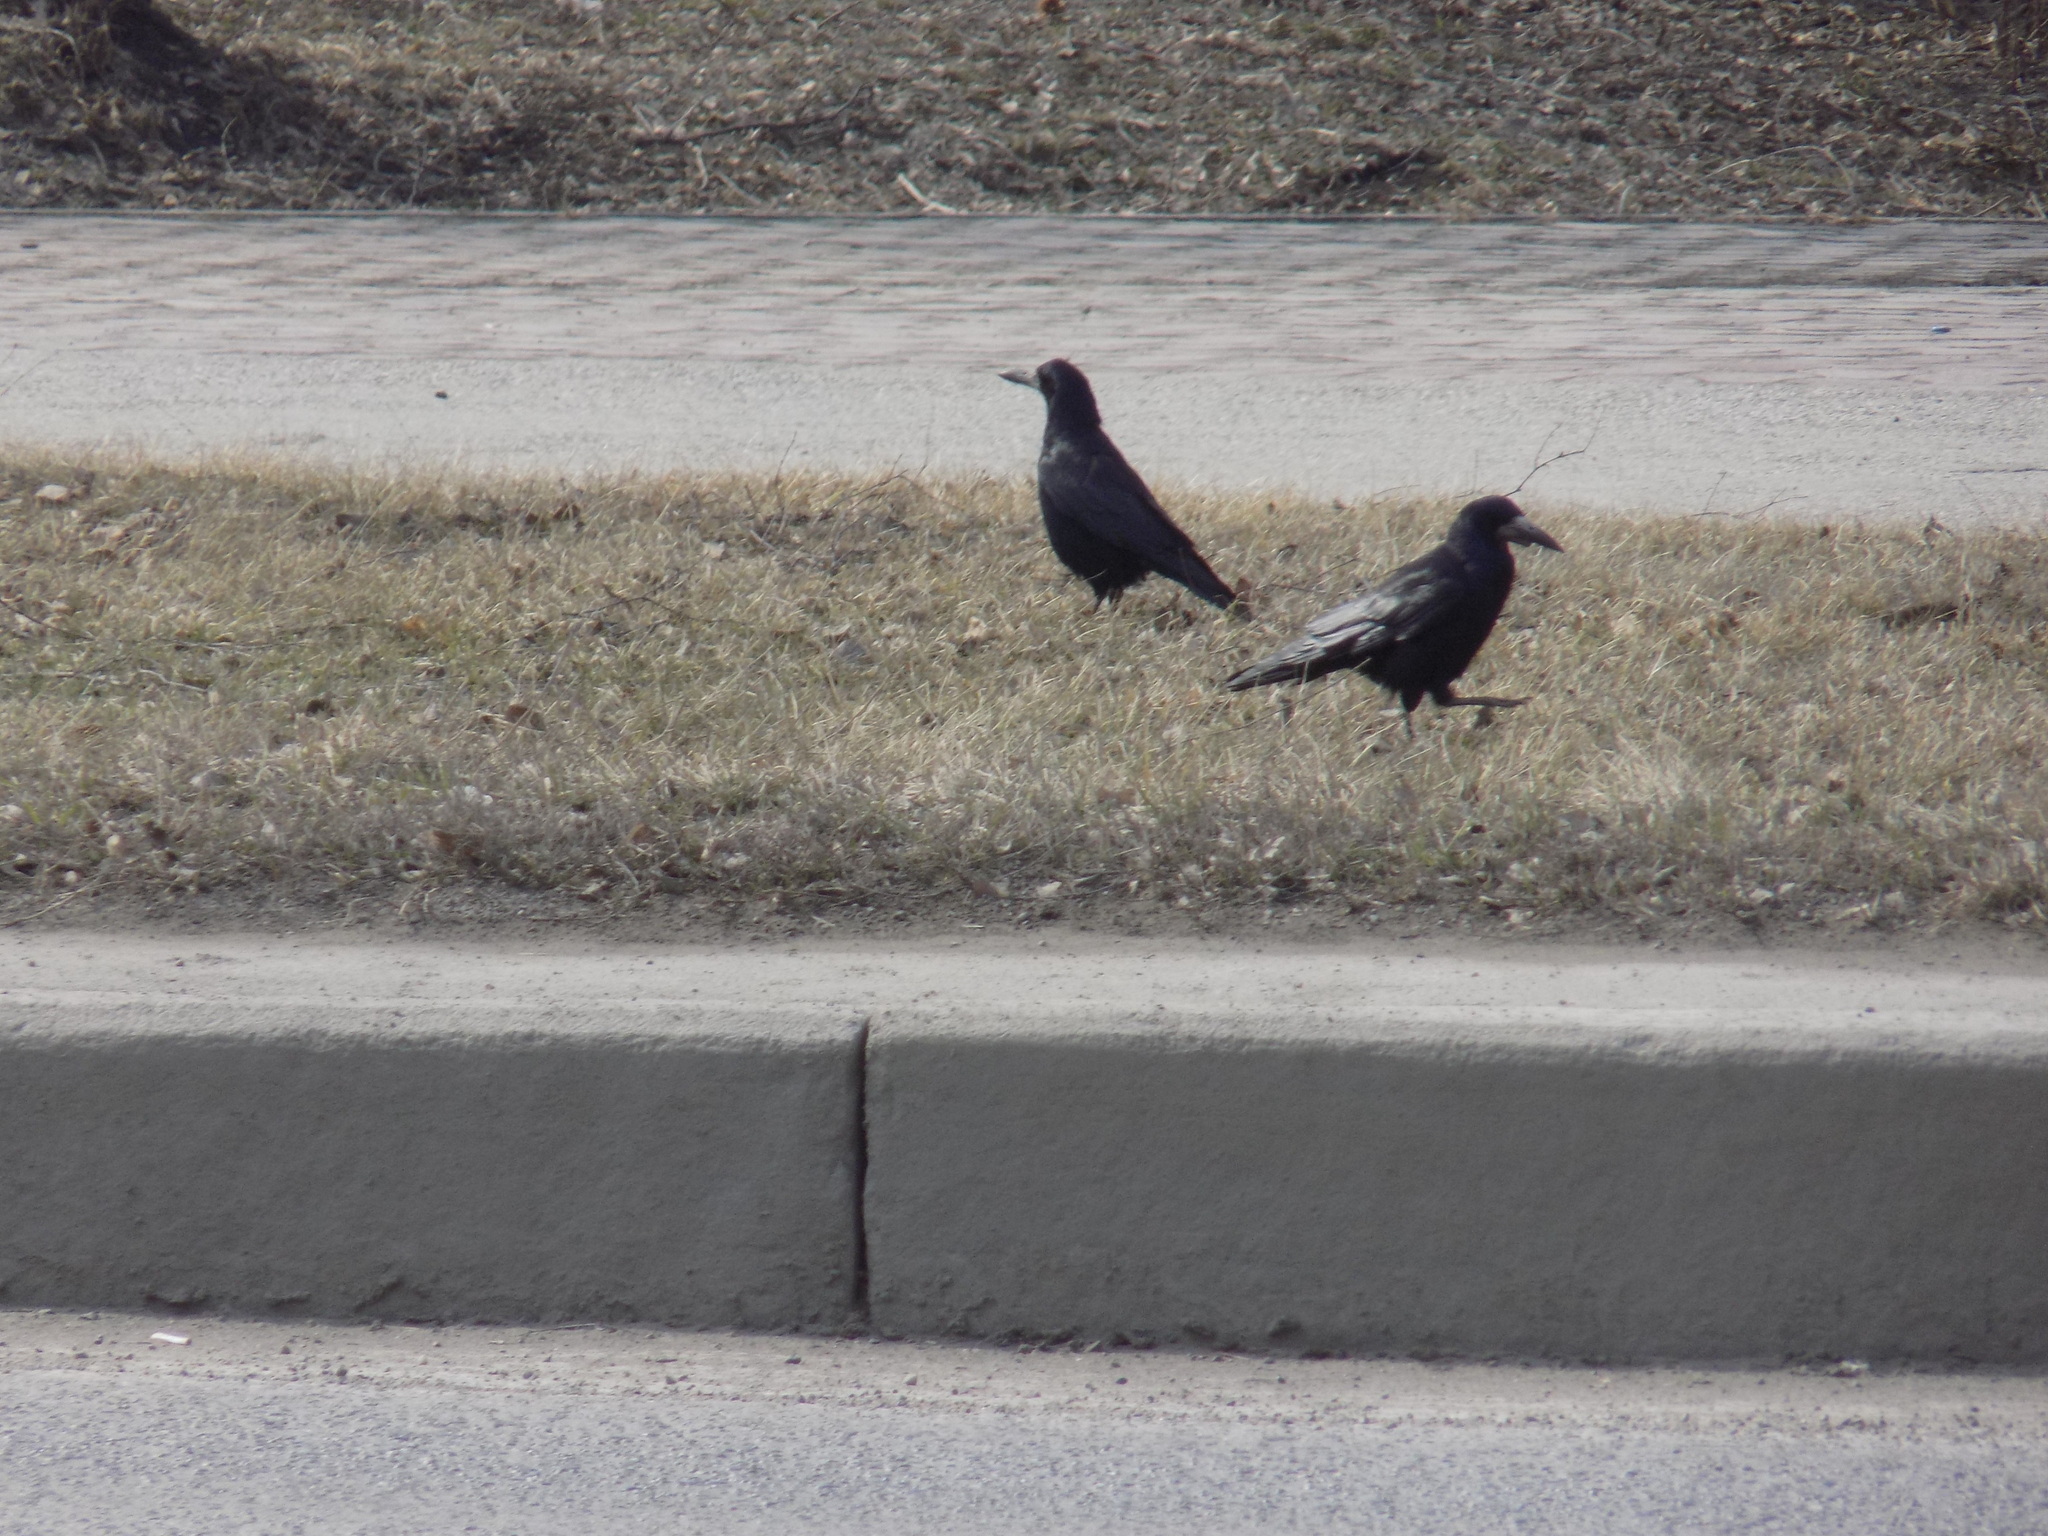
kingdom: Animalia
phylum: Chordata
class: Aves
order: Passeriformes
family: Corvidae
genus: Corvus
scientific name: Corvus frugilegus
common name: Rook
